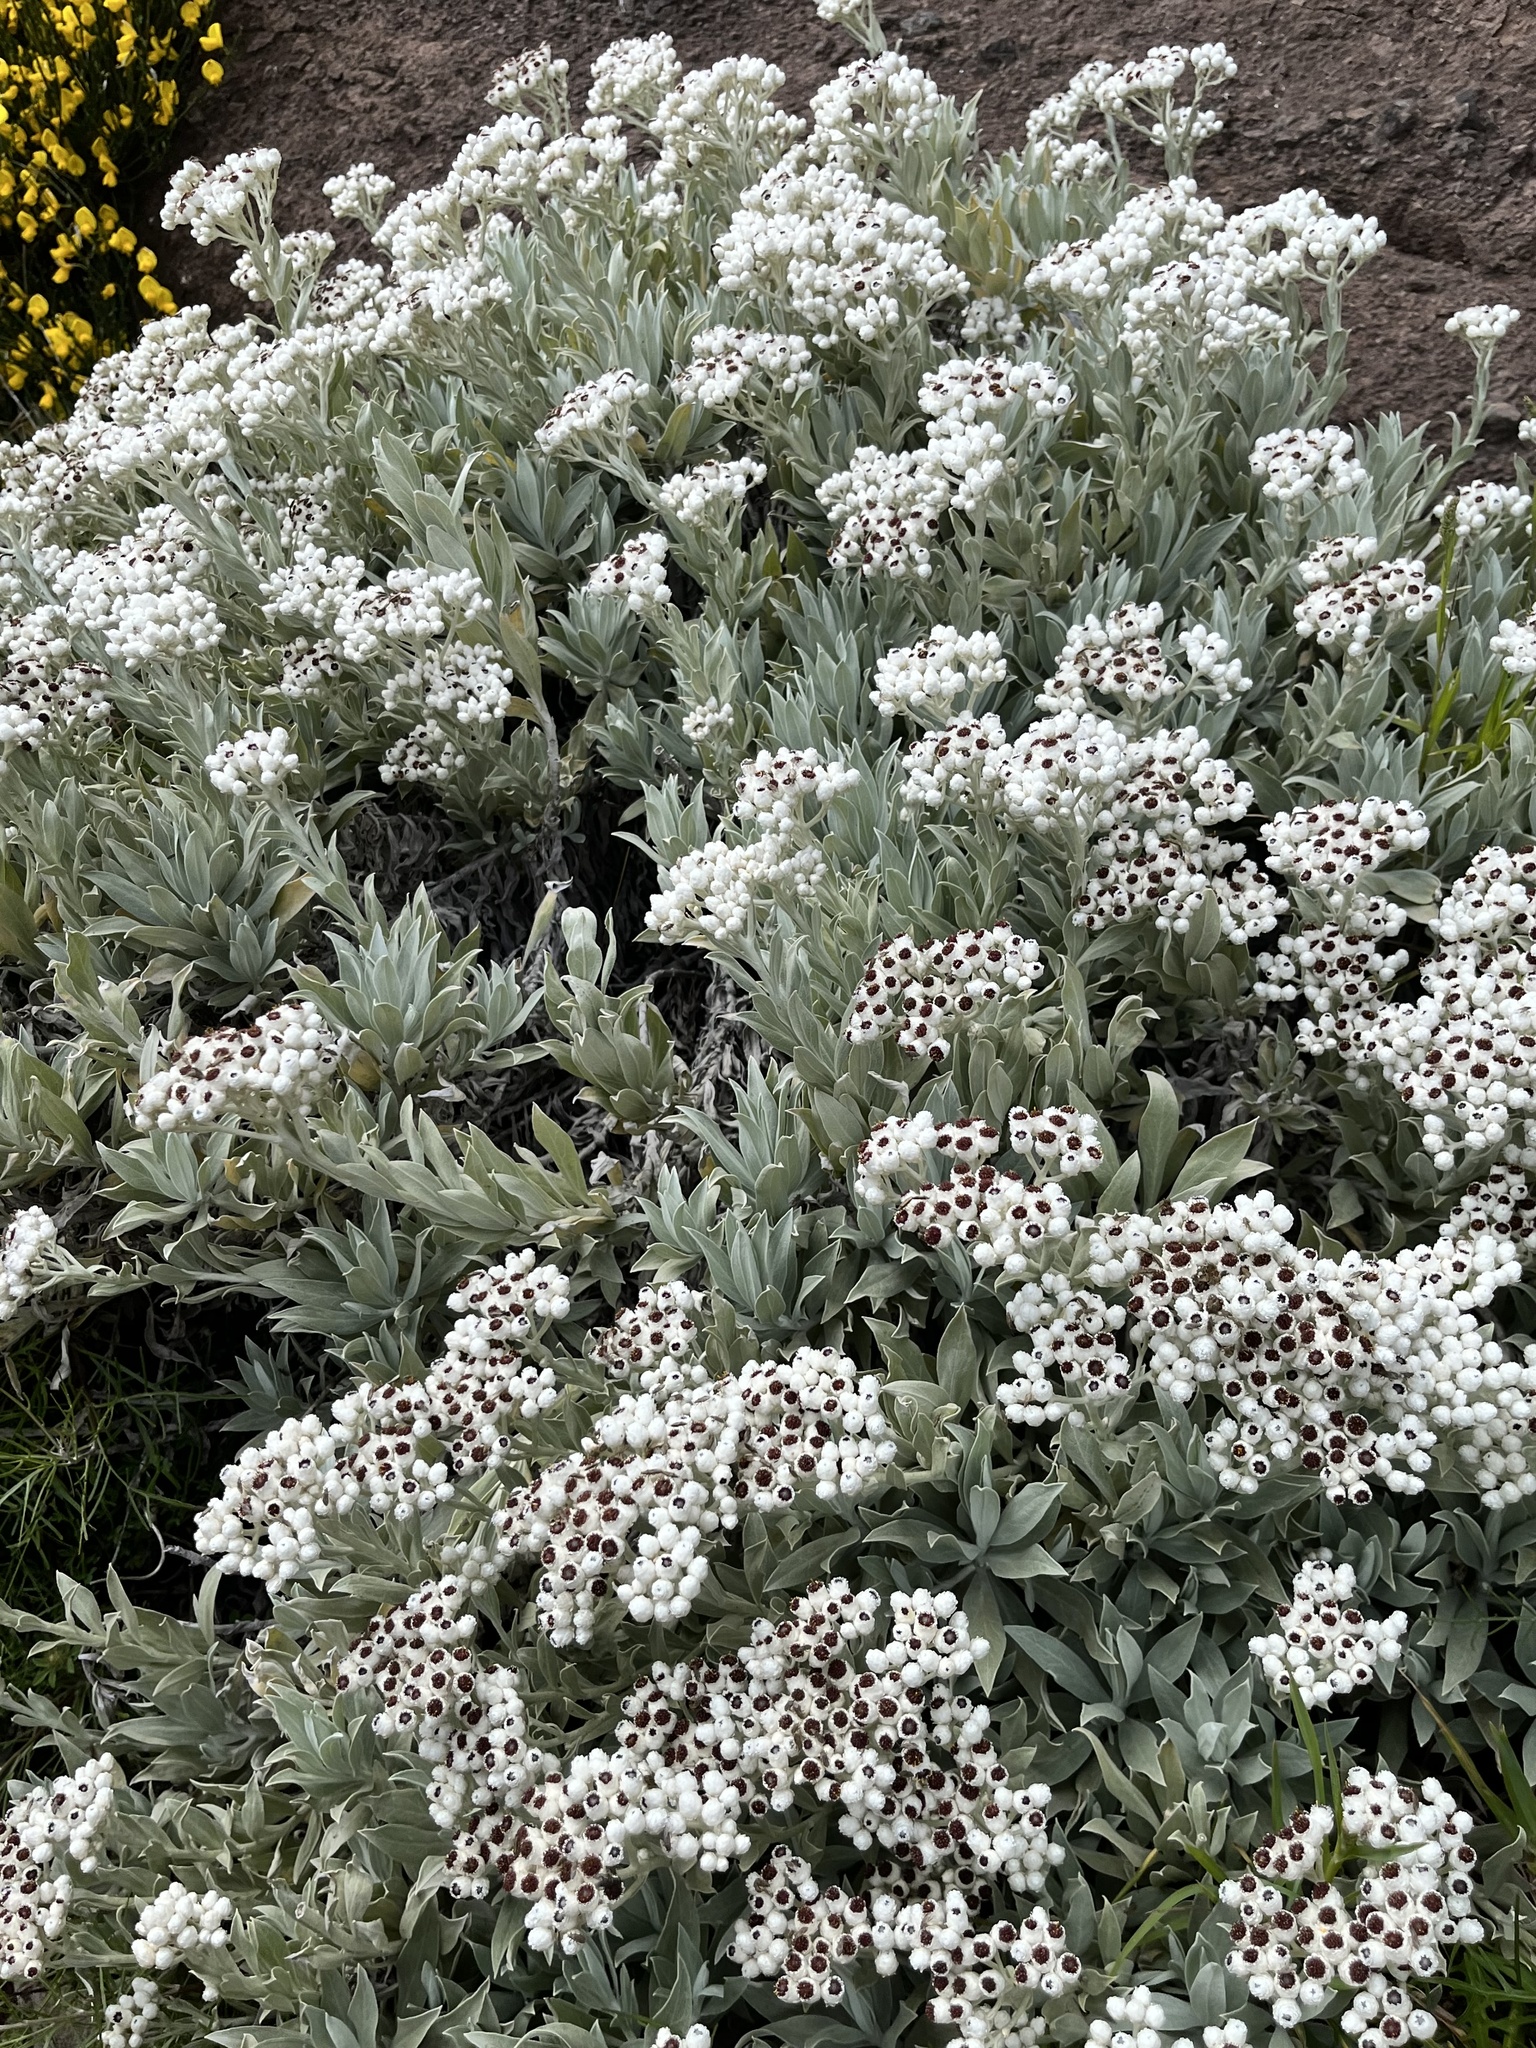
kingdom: Plantae
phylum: Tracheophyta
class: Magnoliopsida
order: Asterales
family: Asteraceae
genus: Helichrysum
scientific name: Helichrysum melaleucum
